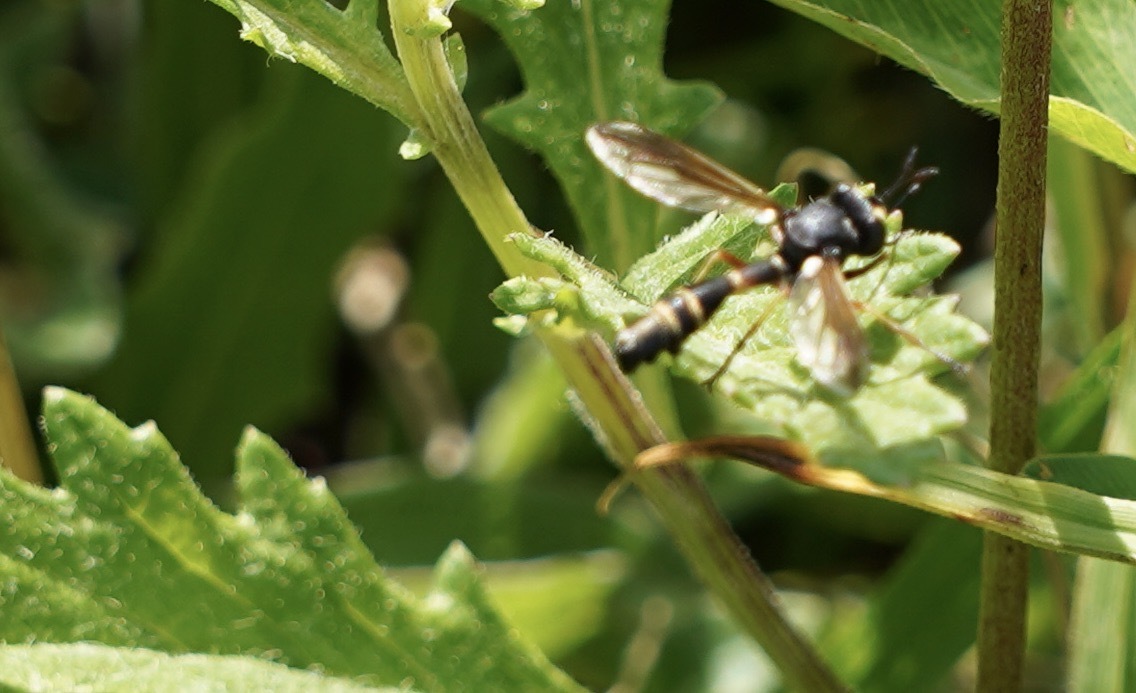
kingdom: Animalia
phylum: Arthropoda
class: Insecta
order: Diptera
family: Conopidae
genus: Physocephala
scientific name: Physocephala rufipes
